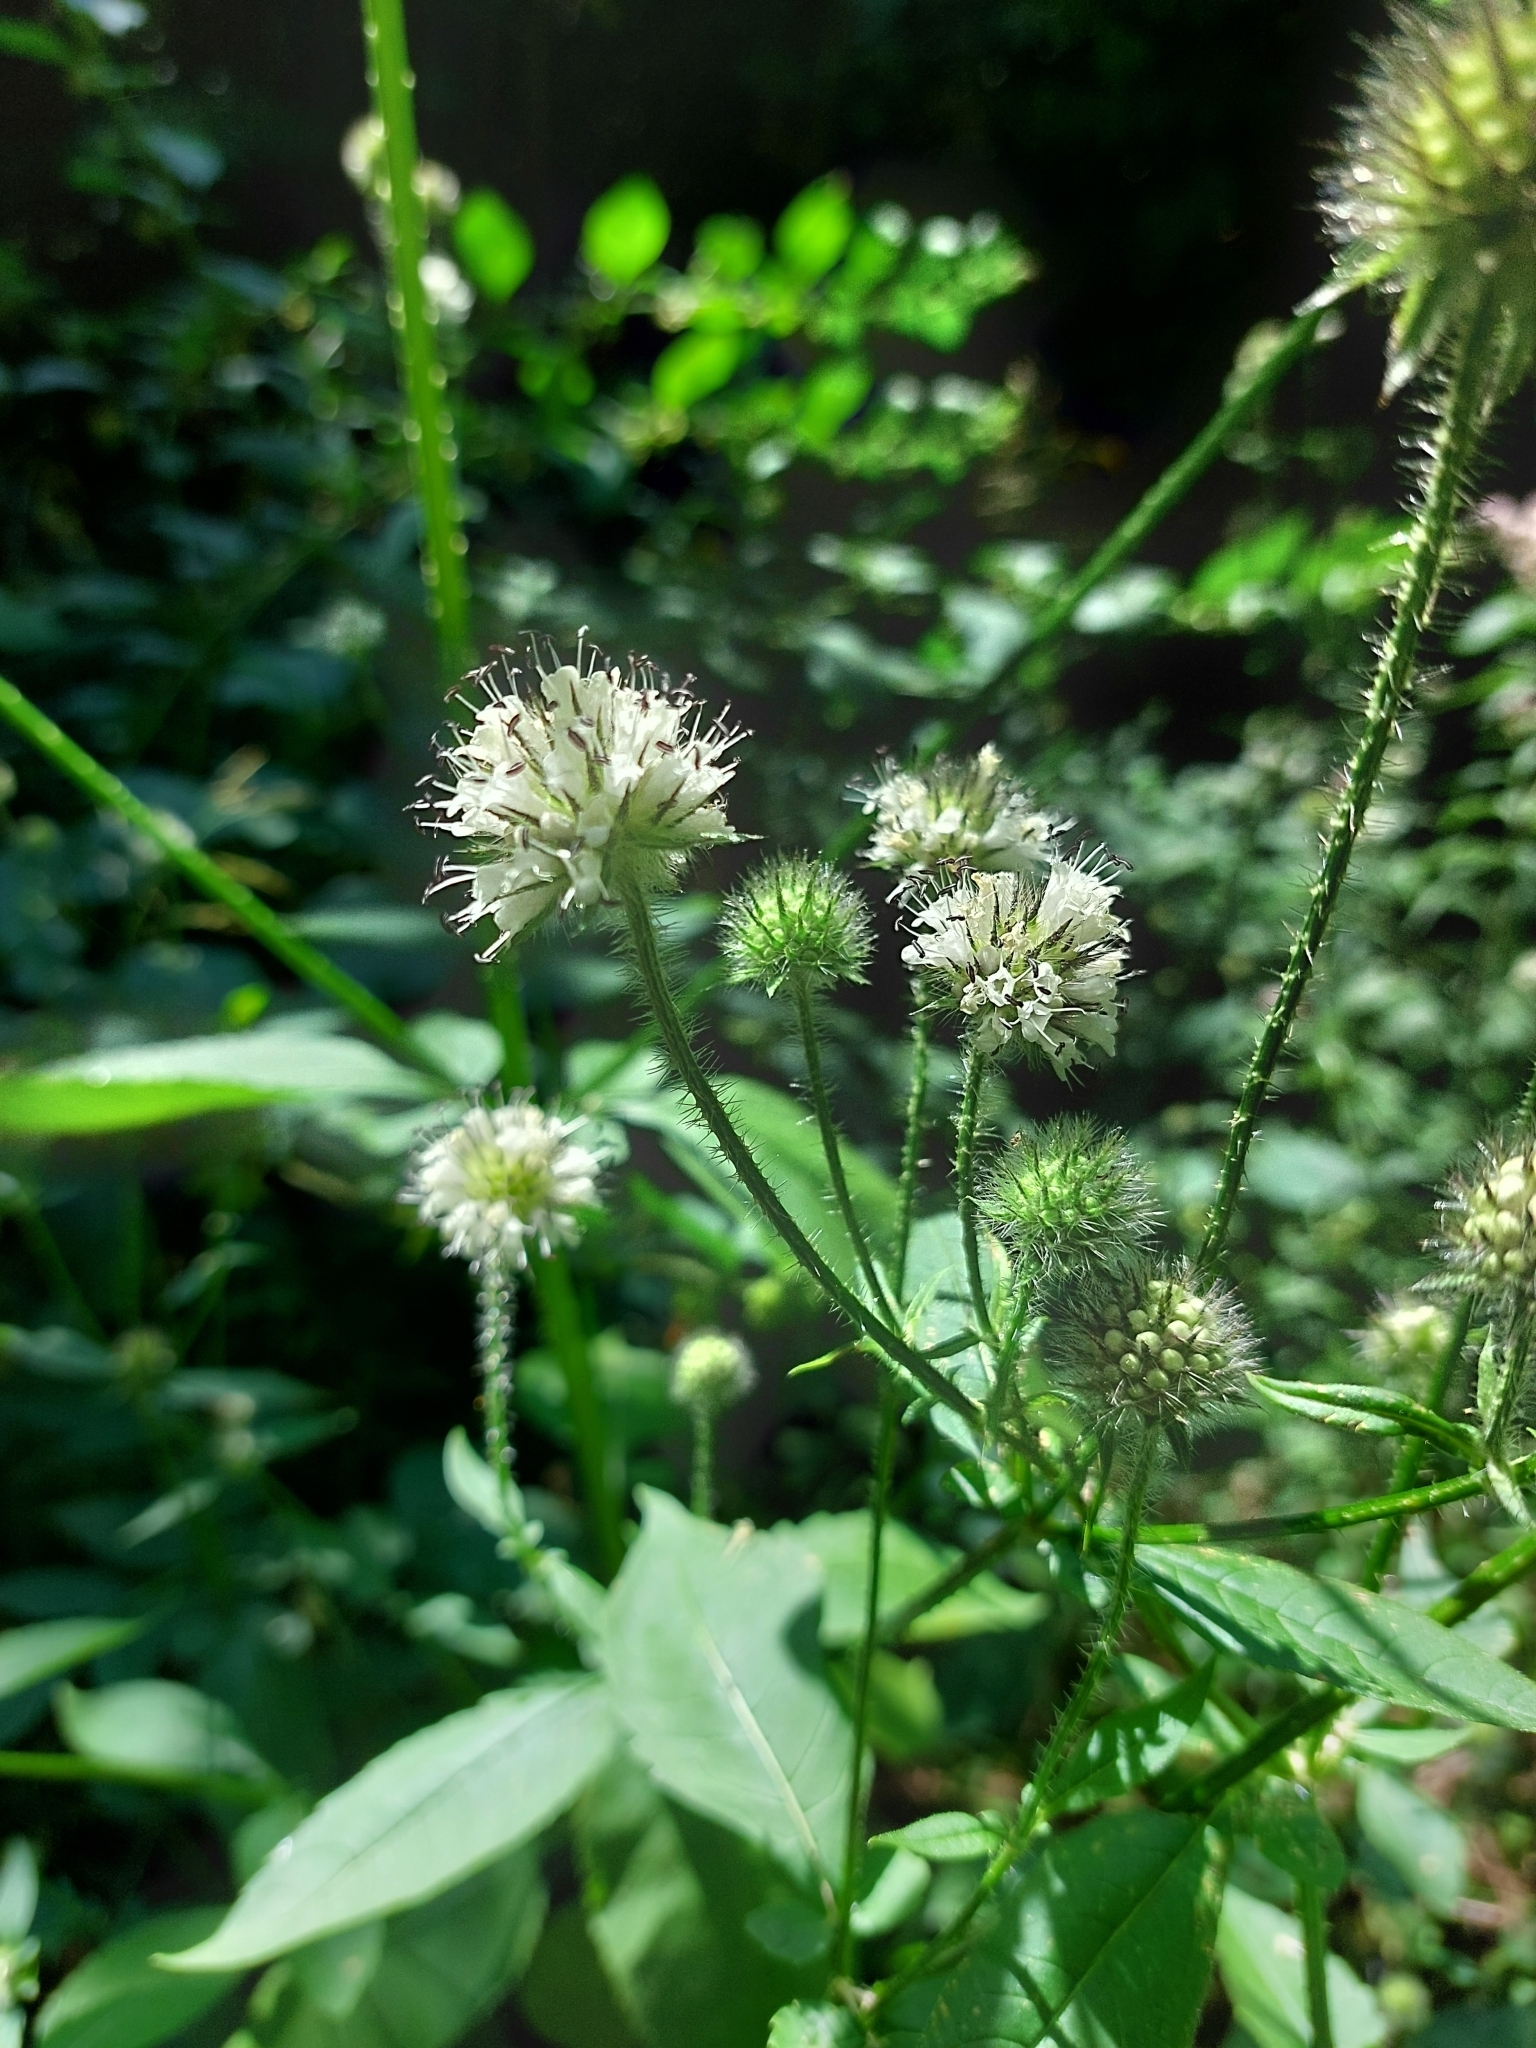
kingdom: Plantae
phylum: Tracheophyta
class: Magnoliopsida
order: Dipsacales
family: Caprifoliaceae
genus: Dipsacus
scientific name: Dipsacus pilosus
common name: Small teasel
